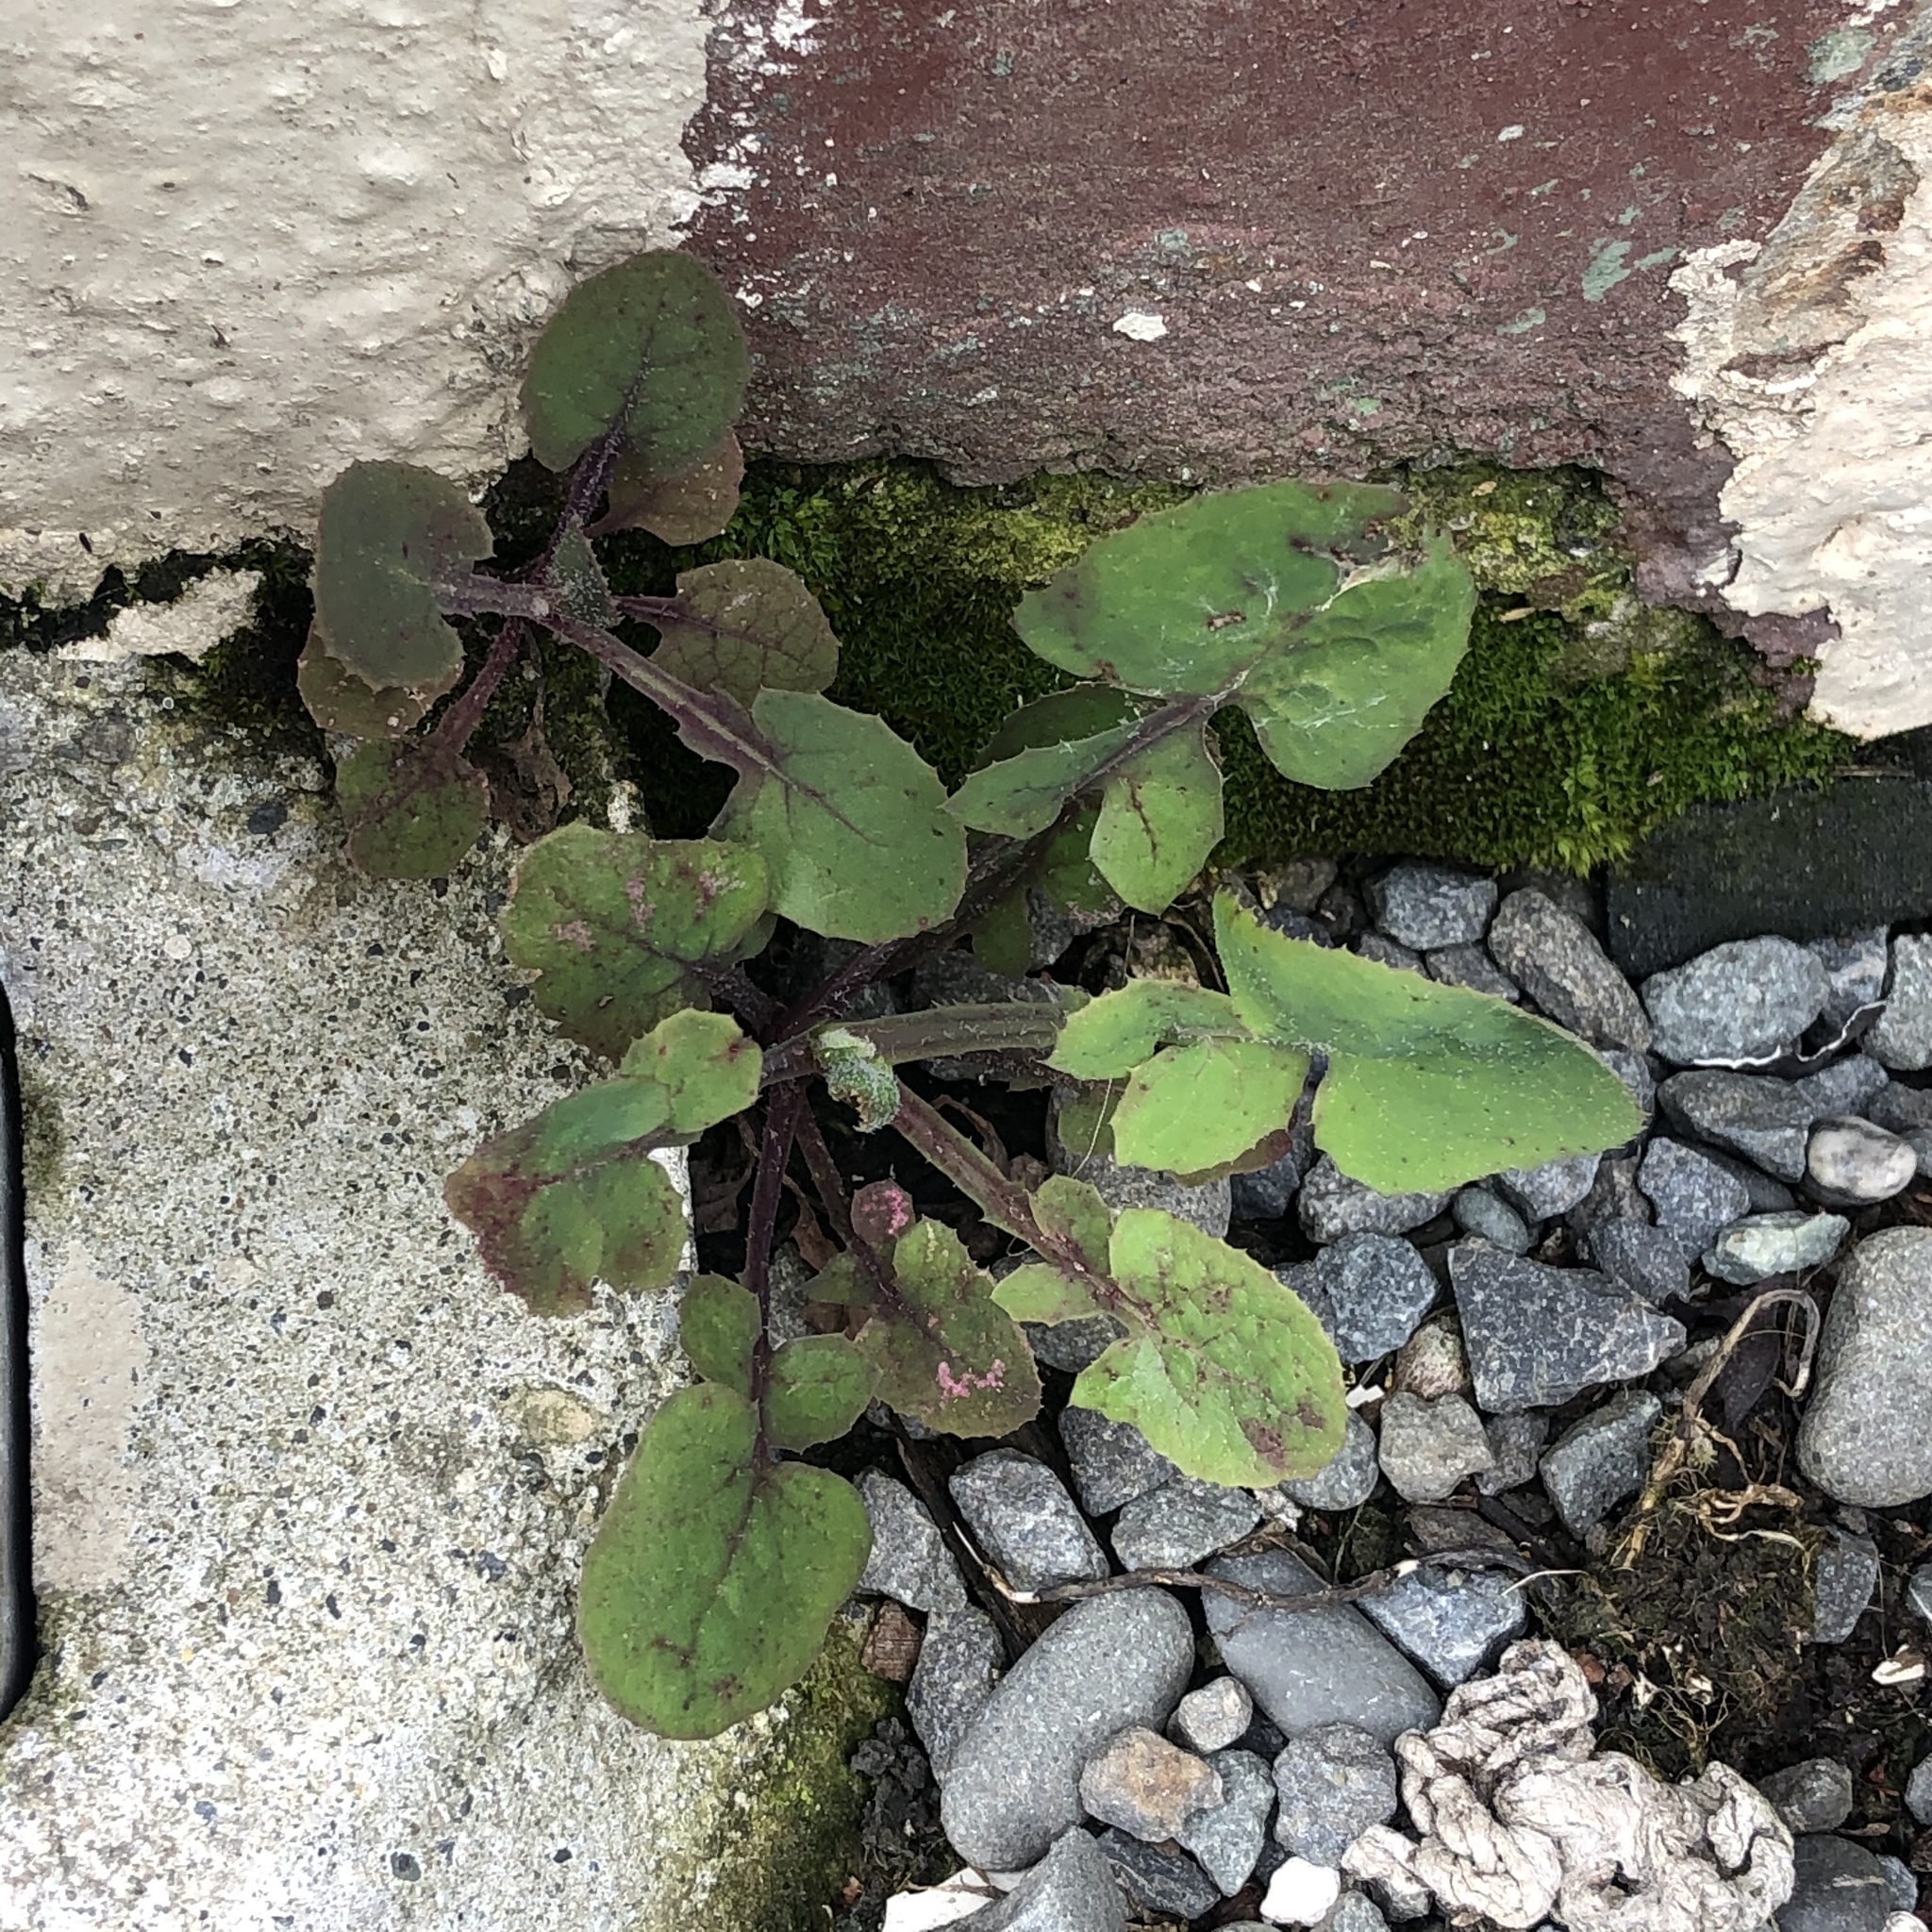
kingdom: Plantae
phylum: Tracheophyta
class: Magnoliopsida
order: Asterales
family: Asteraceae
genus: Sonchus
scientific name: Sonchus oleraceus
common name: Common sowthistle
